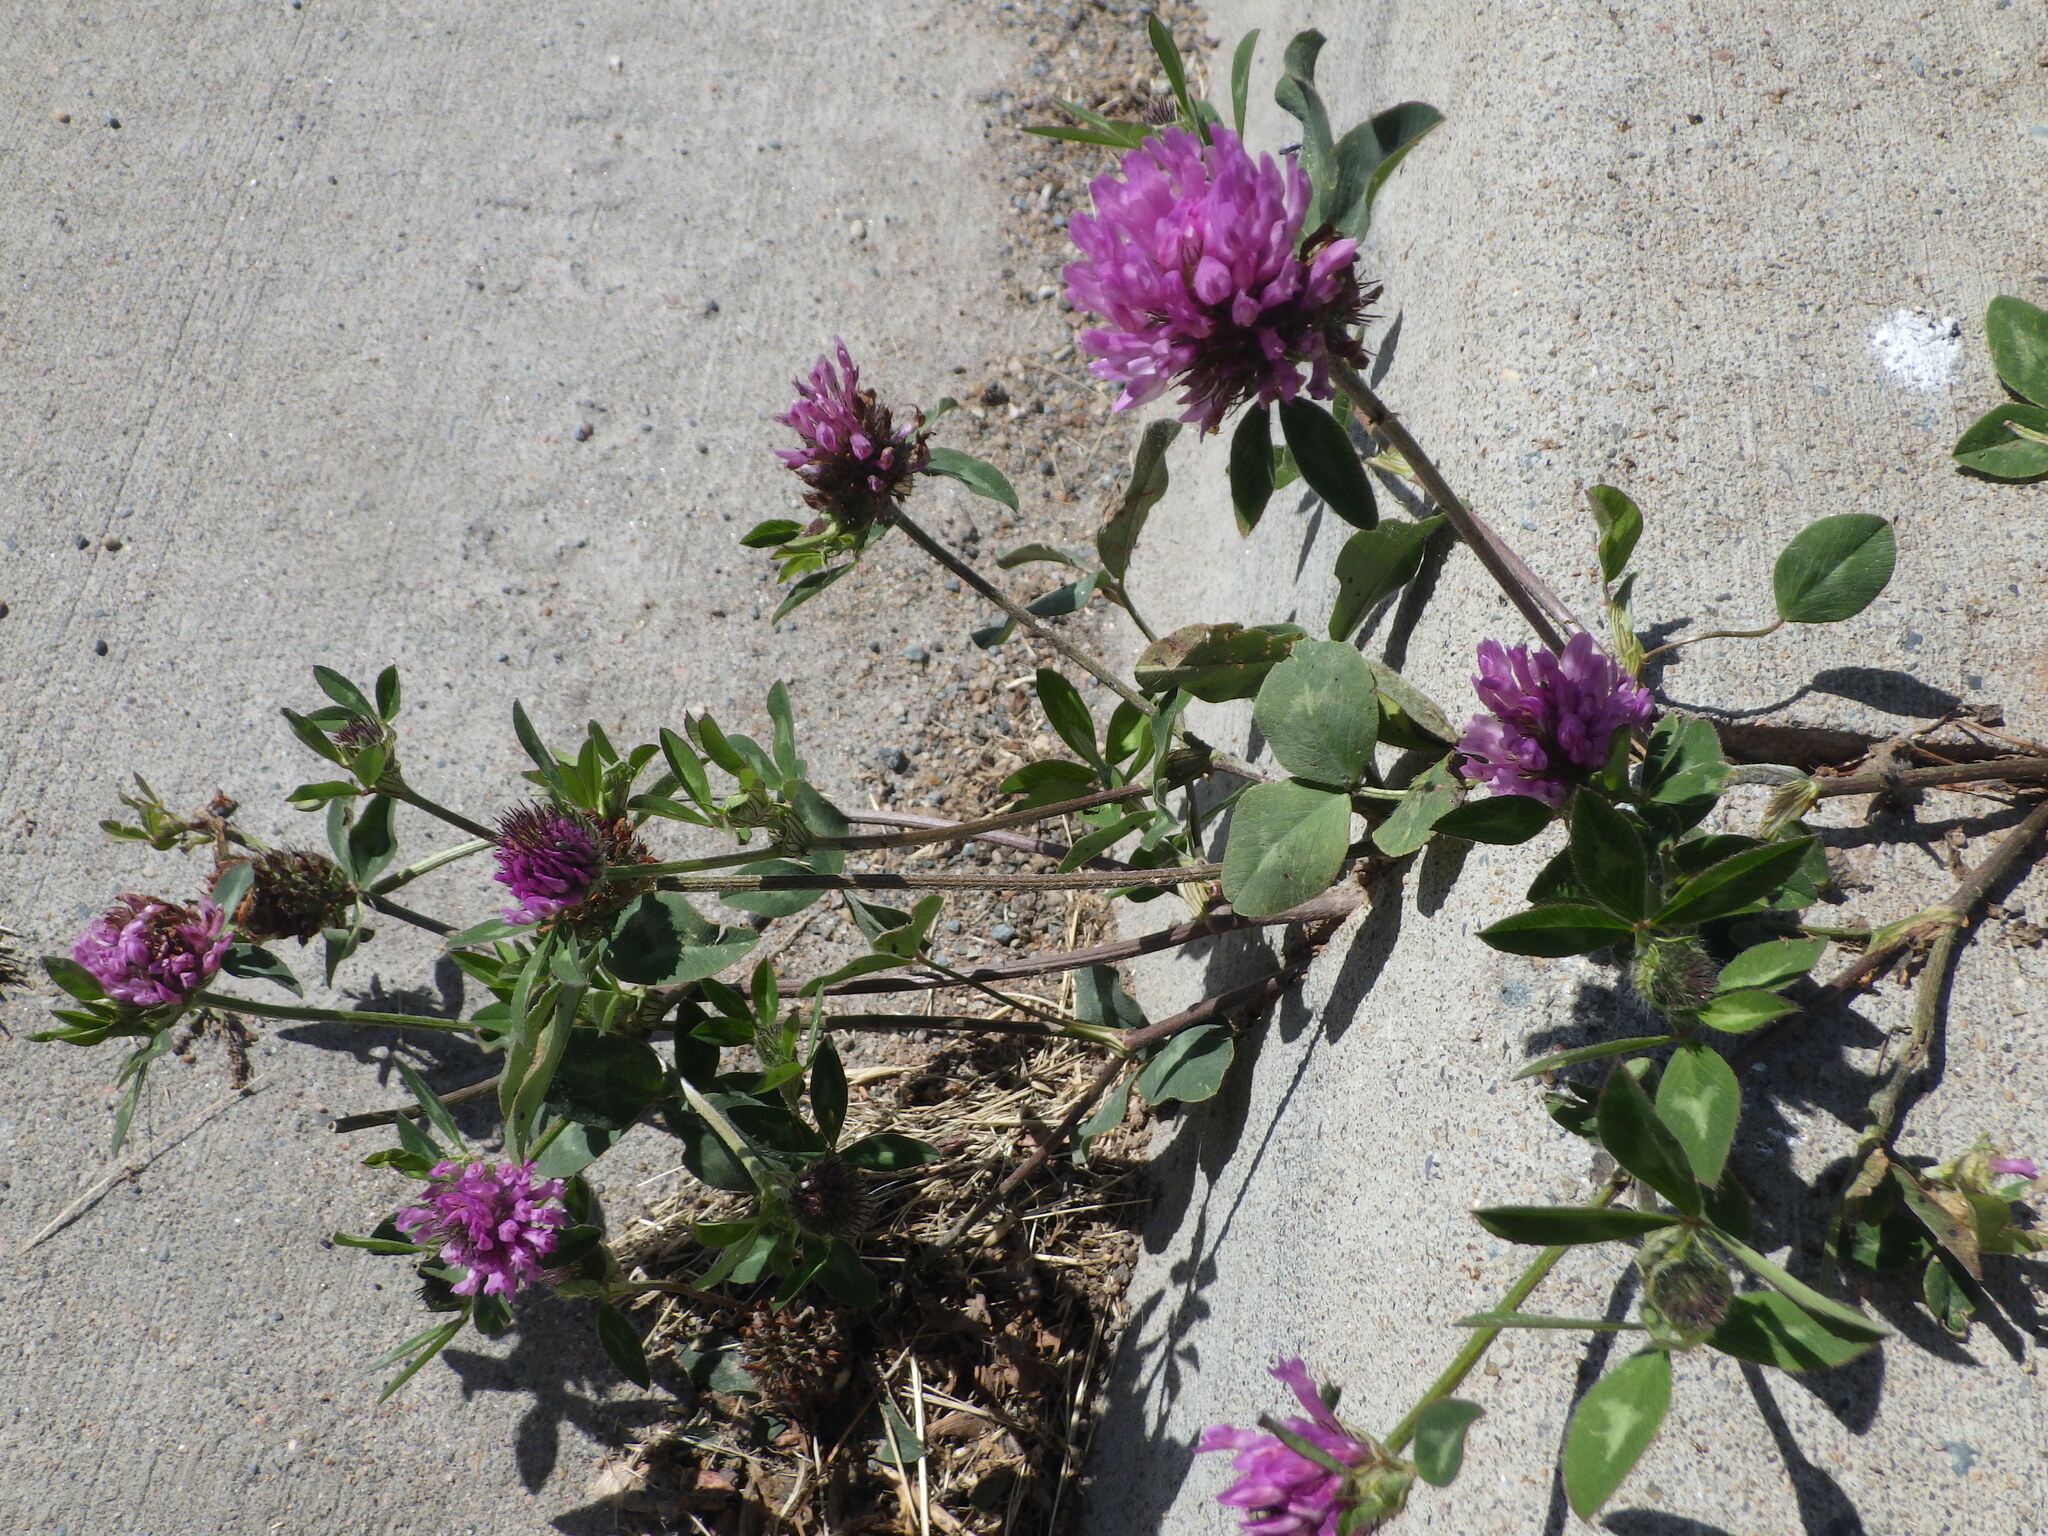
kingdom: Plantae
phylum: Tracheophyta
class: Magnoliopsida
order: Fabales
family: Fabaceae
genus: Trifolium
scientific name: Trifolium pratense
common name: Red clover
